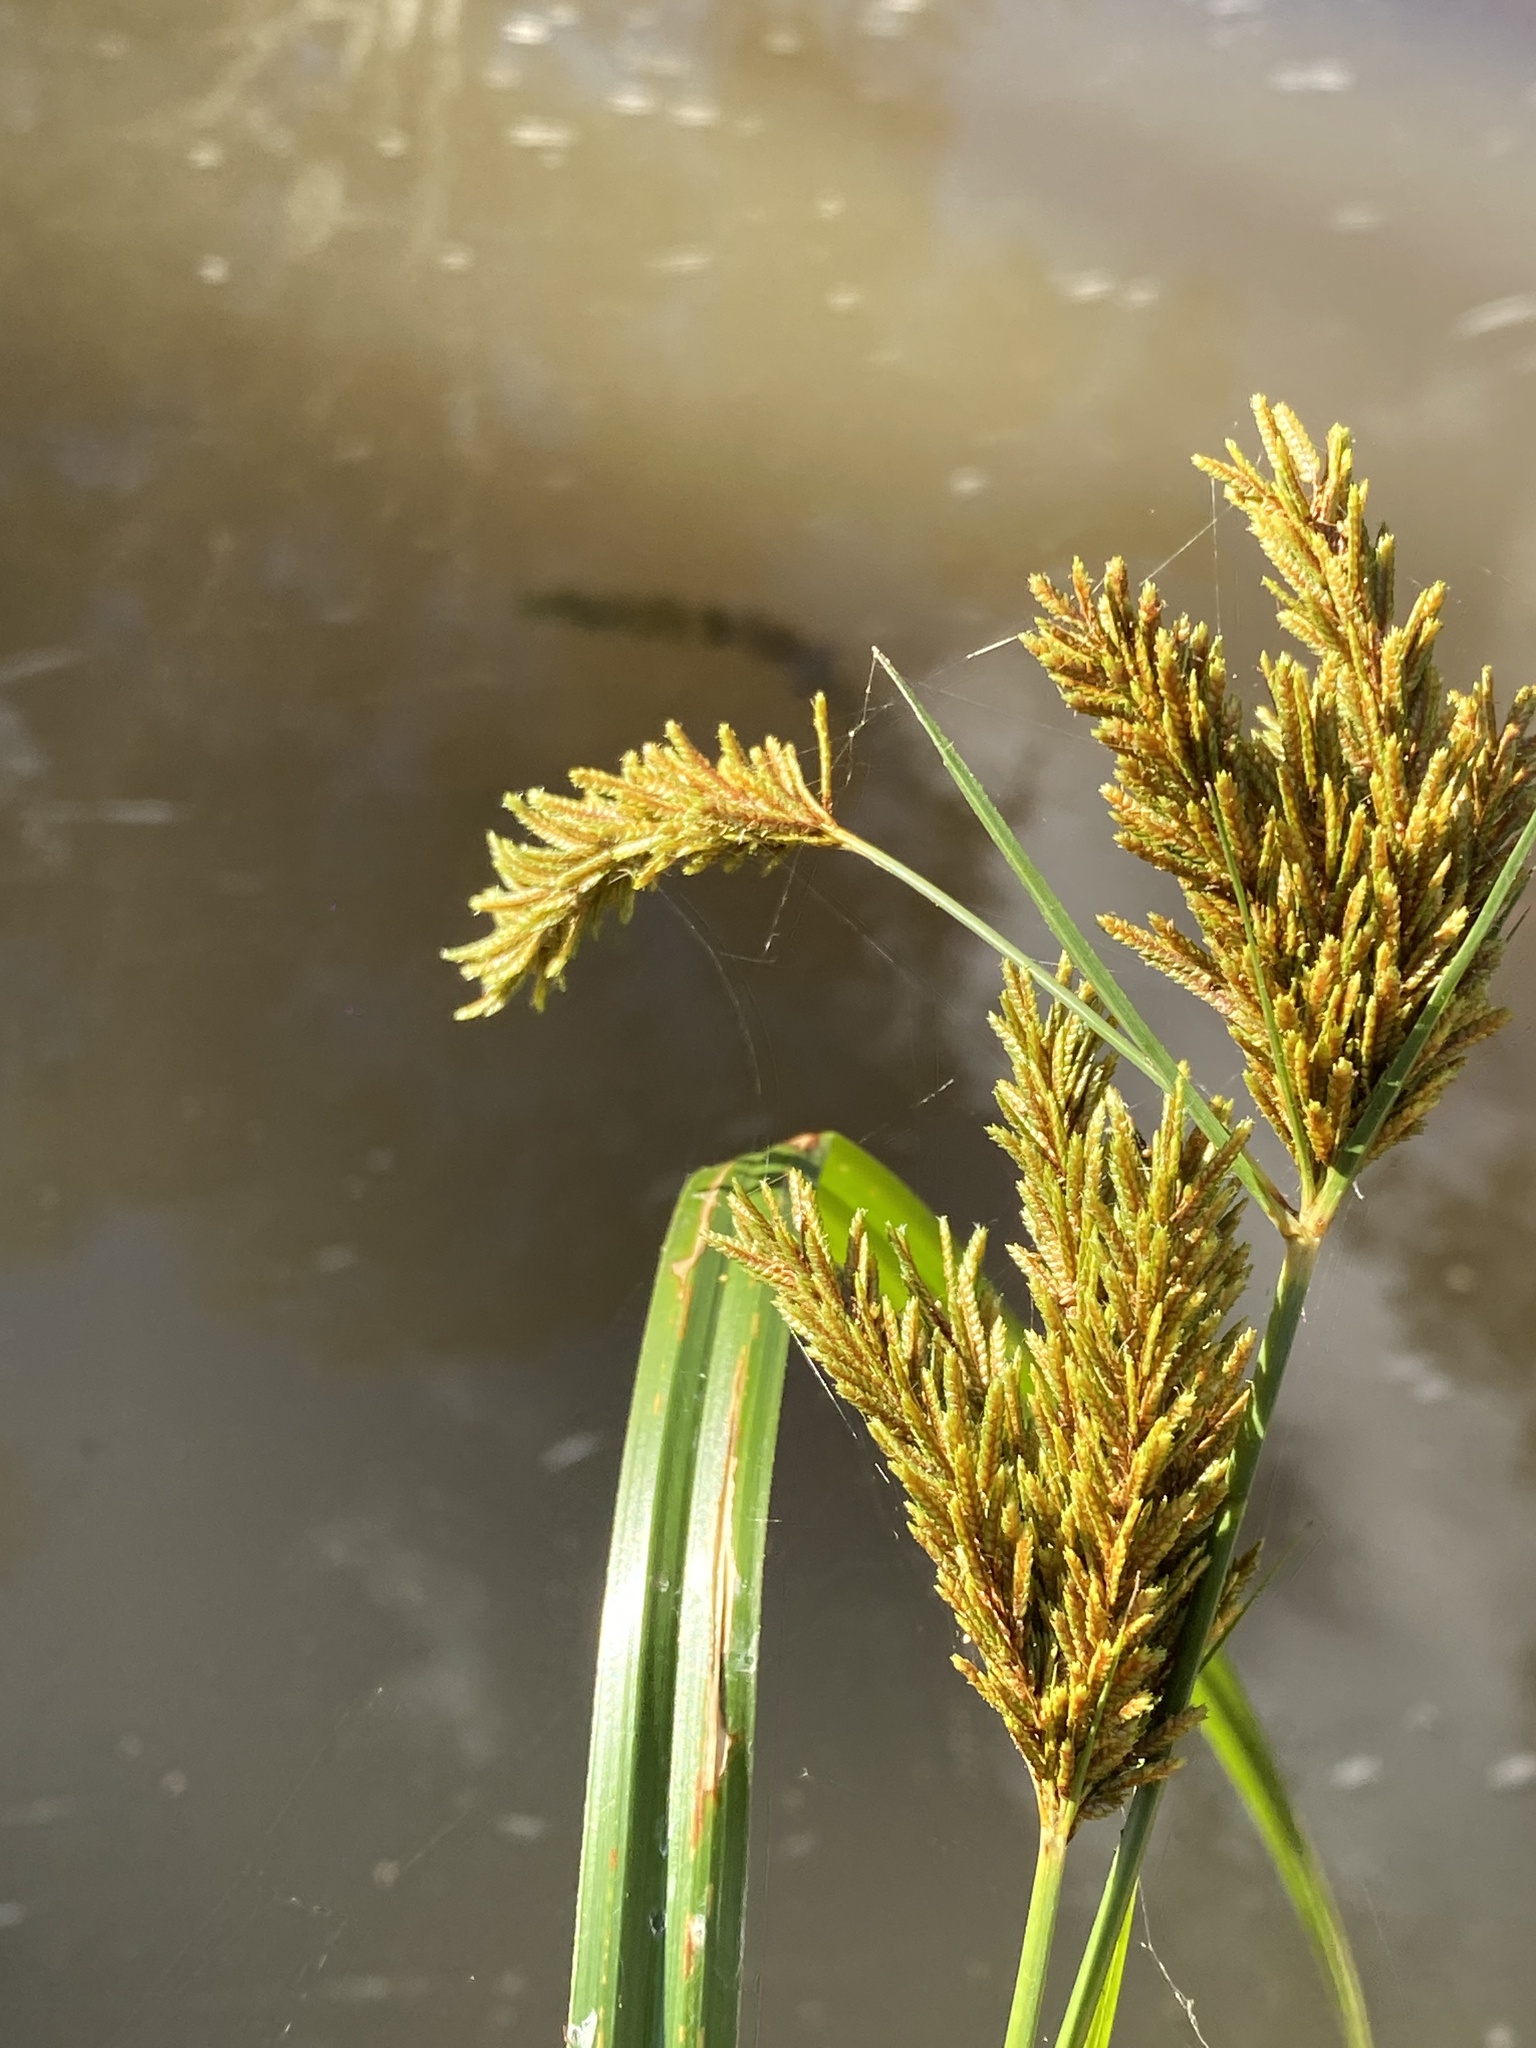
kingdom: Plantae
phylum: Tracheophyta
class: Liliopsida
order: Poales
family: Cyperaceae
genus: Cyperus
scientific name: Cyperus exaltatus
